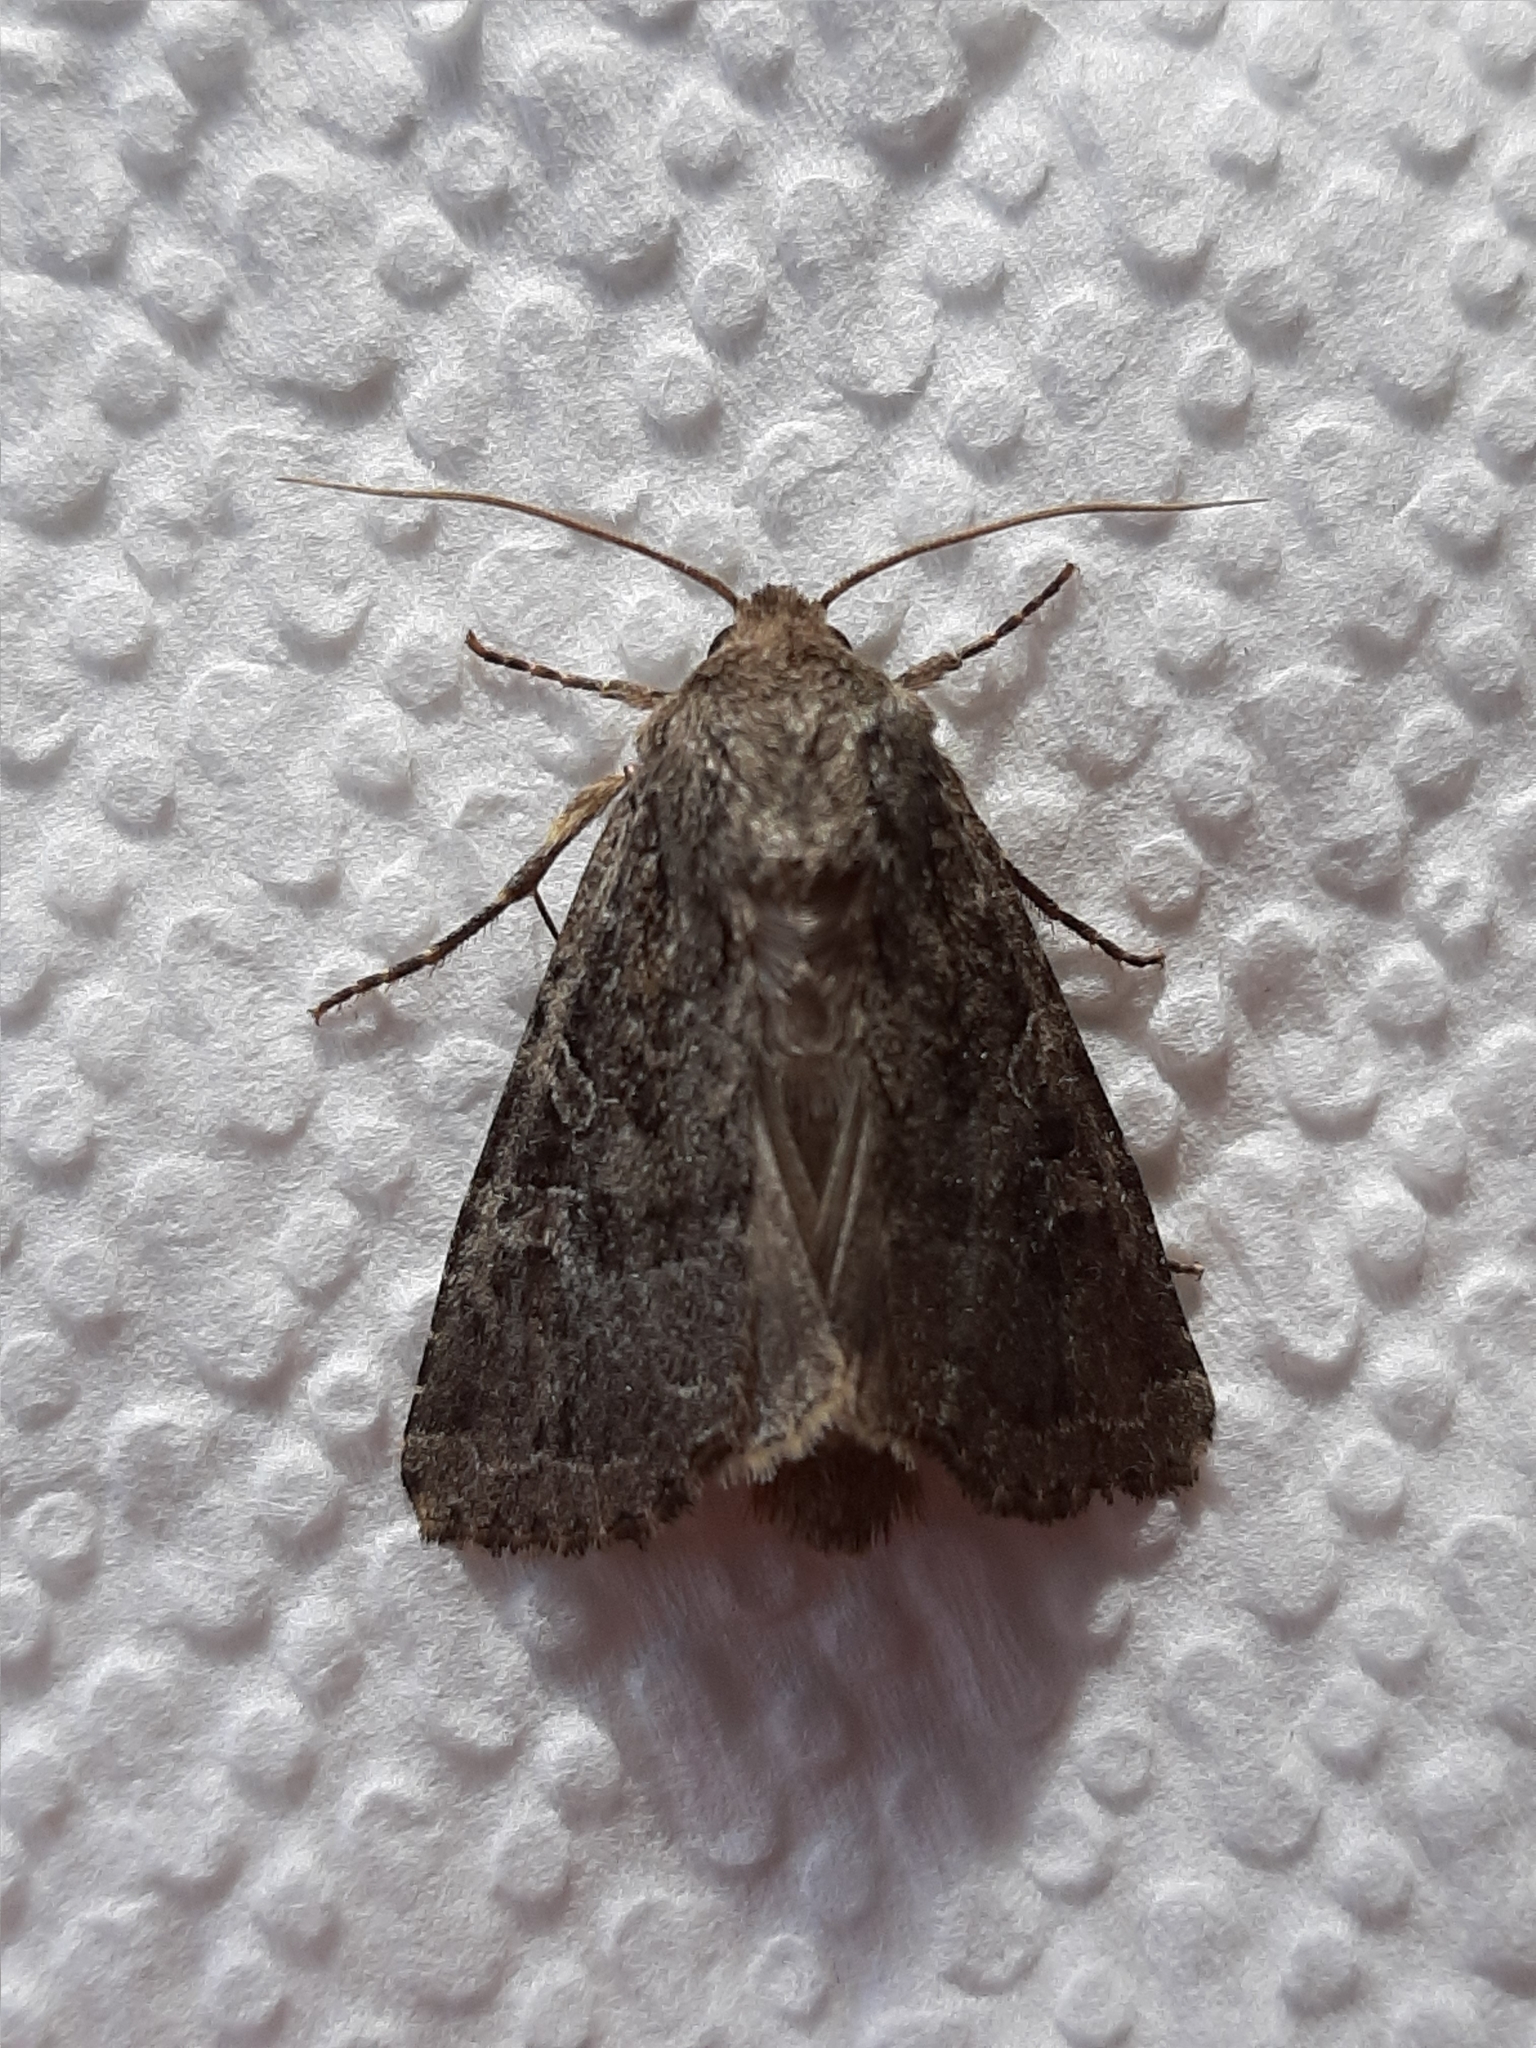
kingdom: Animalia
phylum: Arthropoda
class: Insecta
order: Lepidoptera
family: Noctuidae
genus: Apamea
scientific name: Apamea devastator
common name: Glassy cutworm
